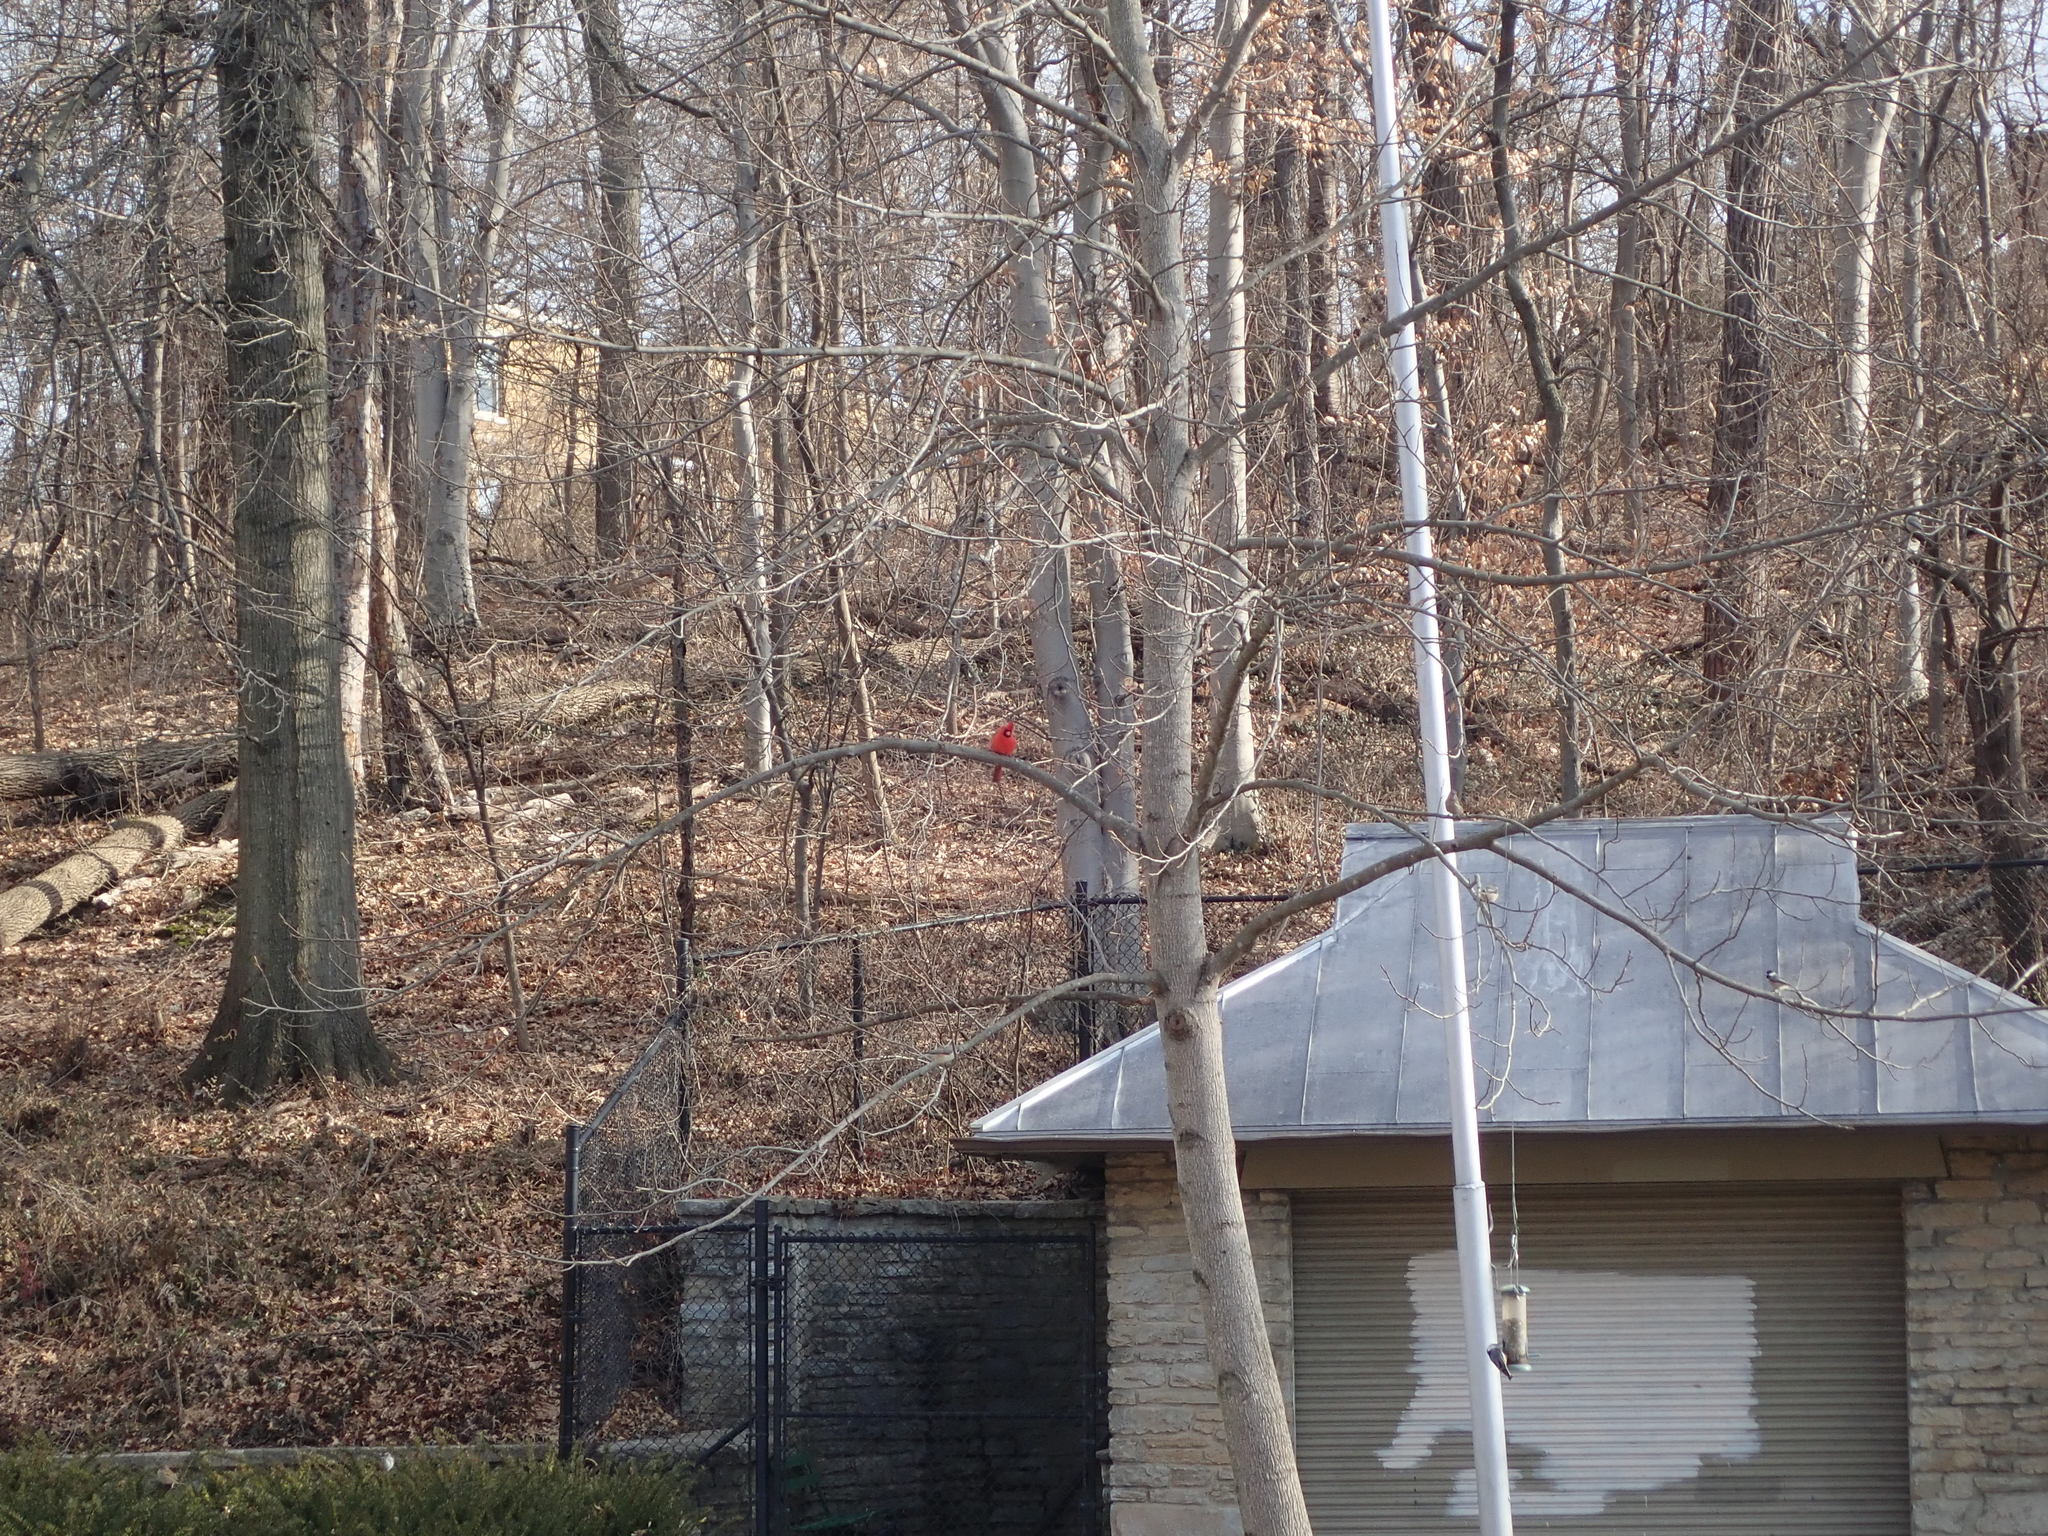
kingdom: Animalia
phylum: Chordata
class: Aves
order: Passeriformes
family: Cardinalidae
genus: Cardinalis
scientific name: Cardinalis cardinalis
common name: Northern cardinal
